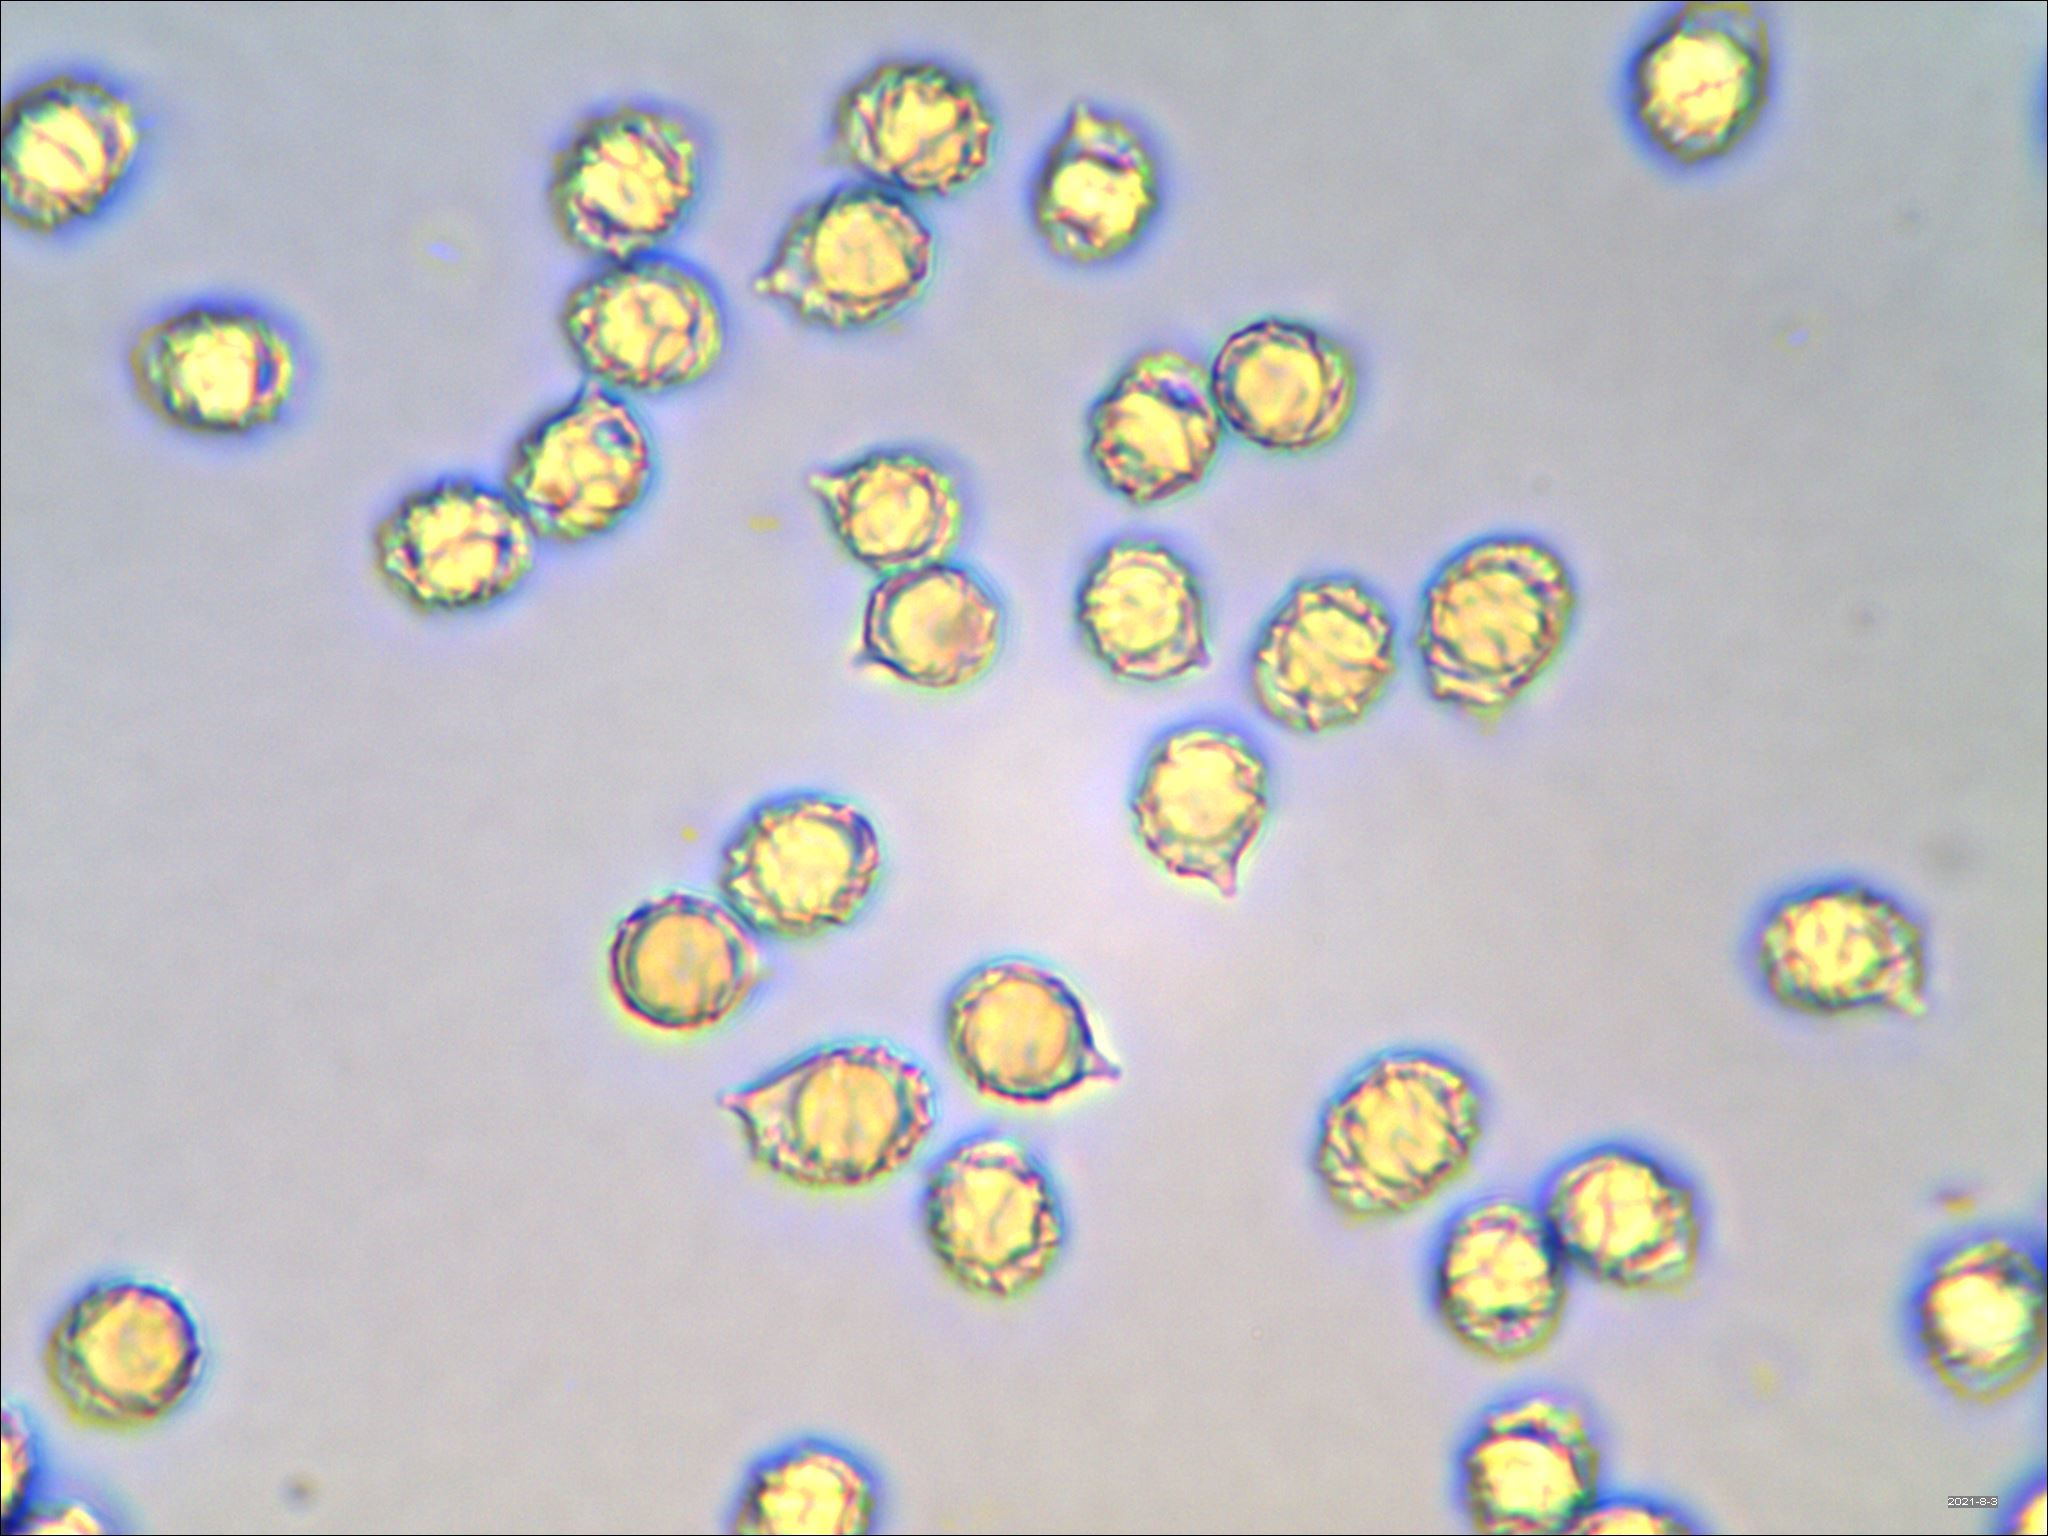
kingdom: Fungi
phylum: Basidiomycota
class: Agaricomycetes
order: Russulales
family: Russulaceae
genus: Lactarius
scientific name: Lactarius indigo
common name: Indigo milk cap
